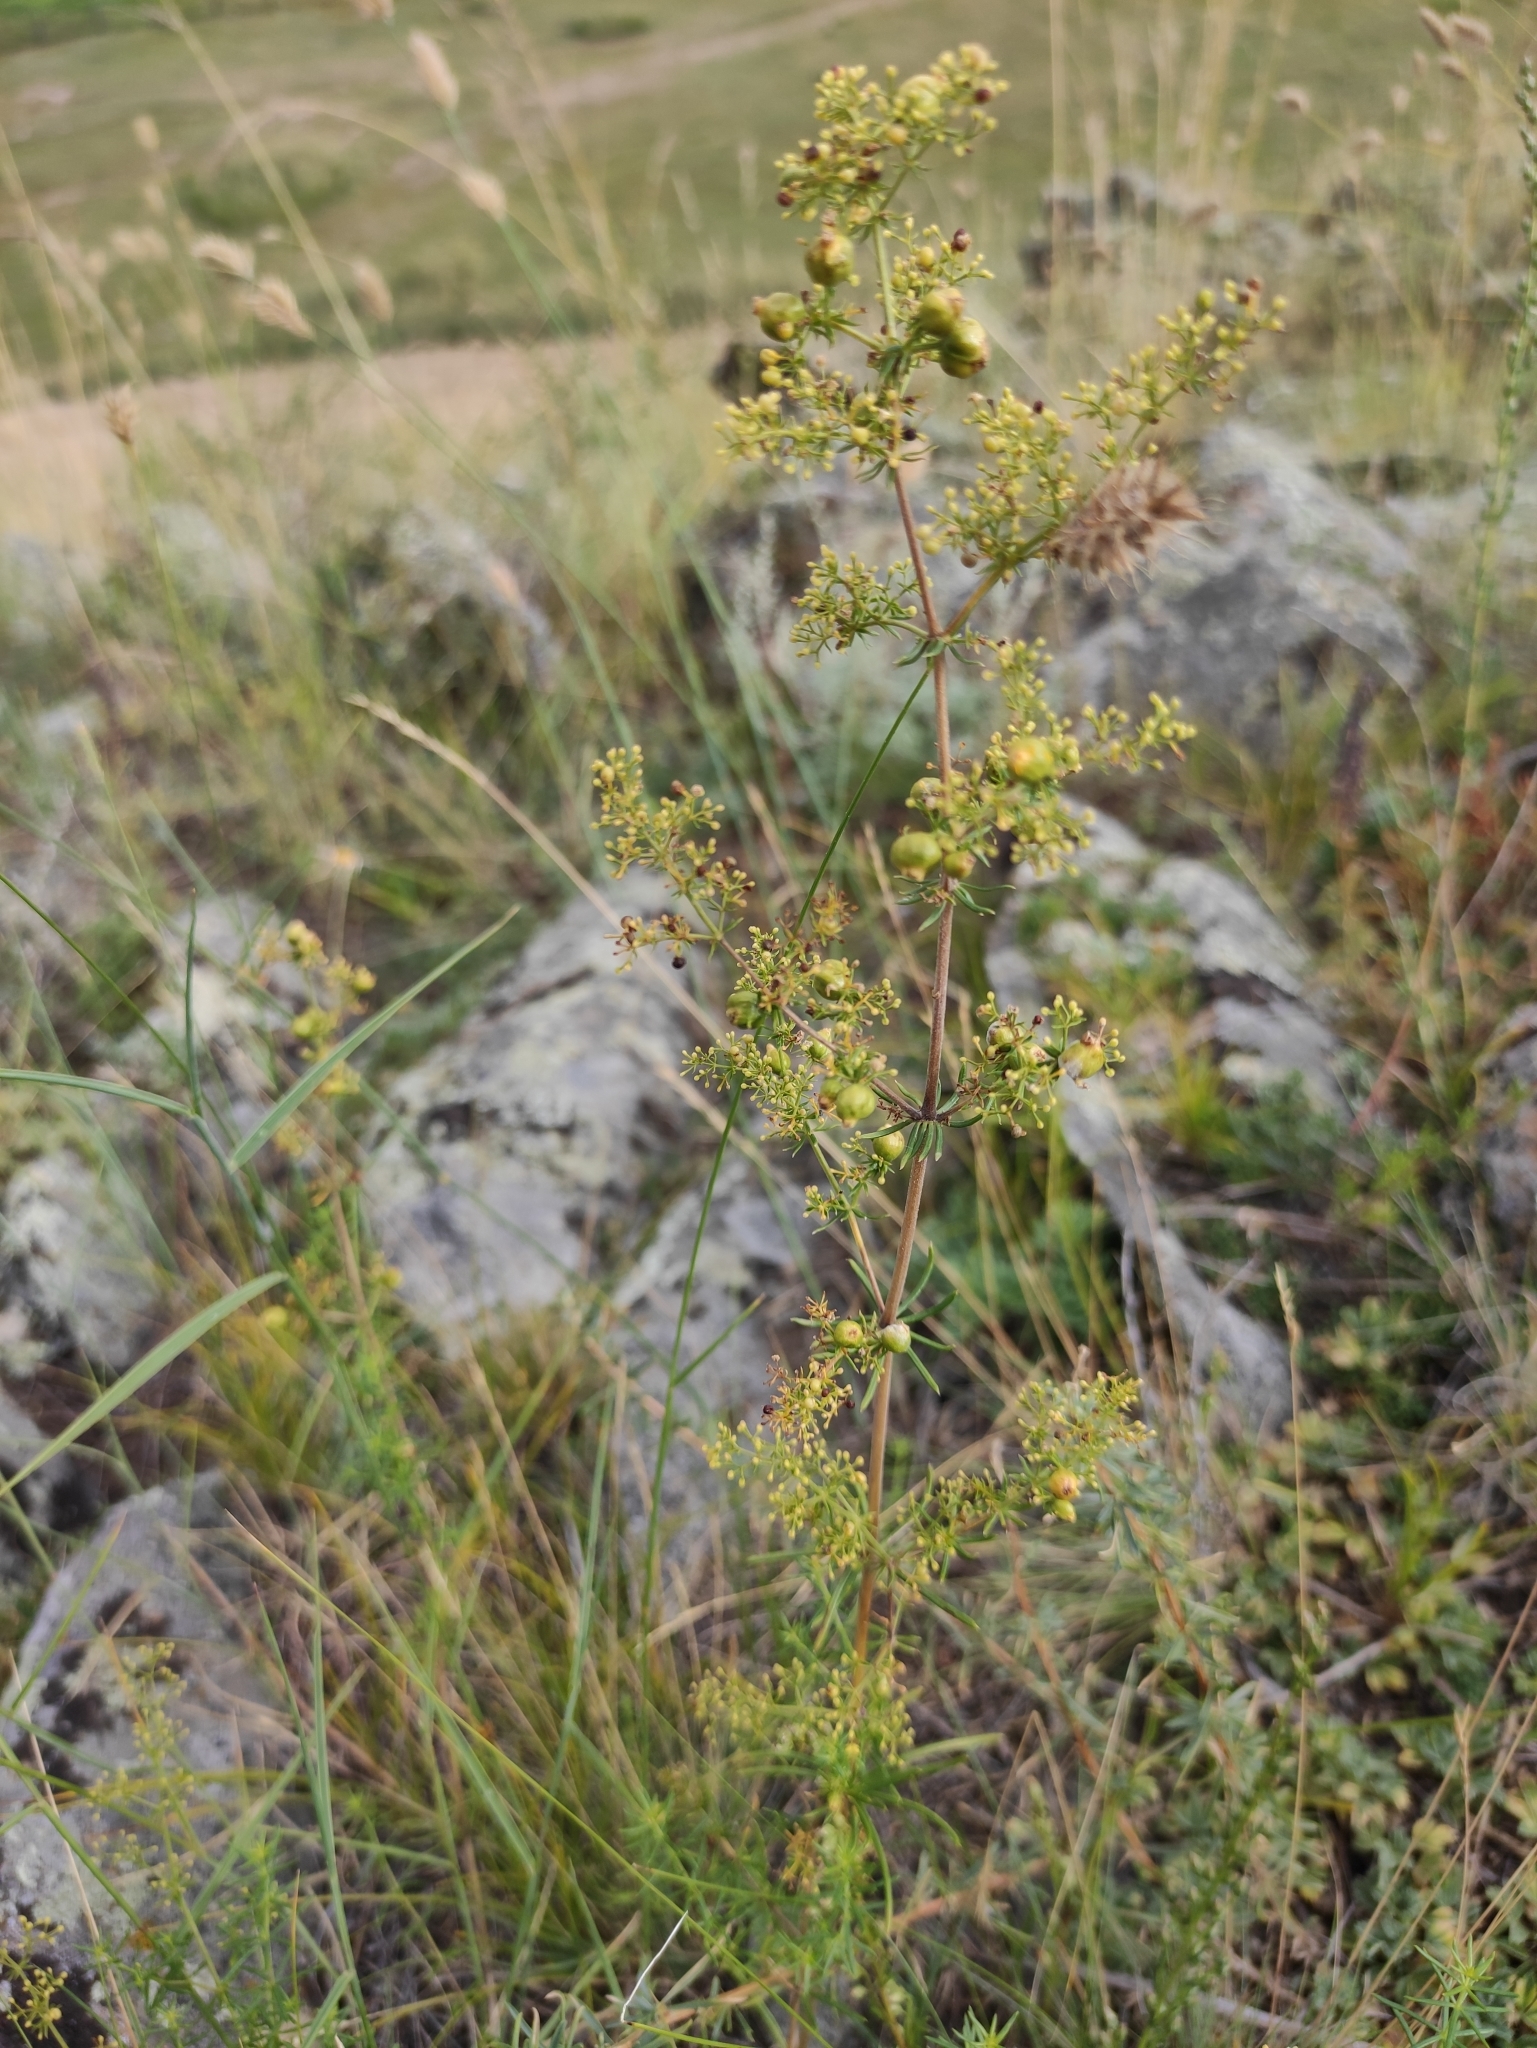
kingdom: Plantae
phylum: Tracheophyta
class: Magnoliopsida
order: Gentianales
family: Rubiaceae
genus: Galium
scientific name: Galium verum
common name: Lady's bedstraw
